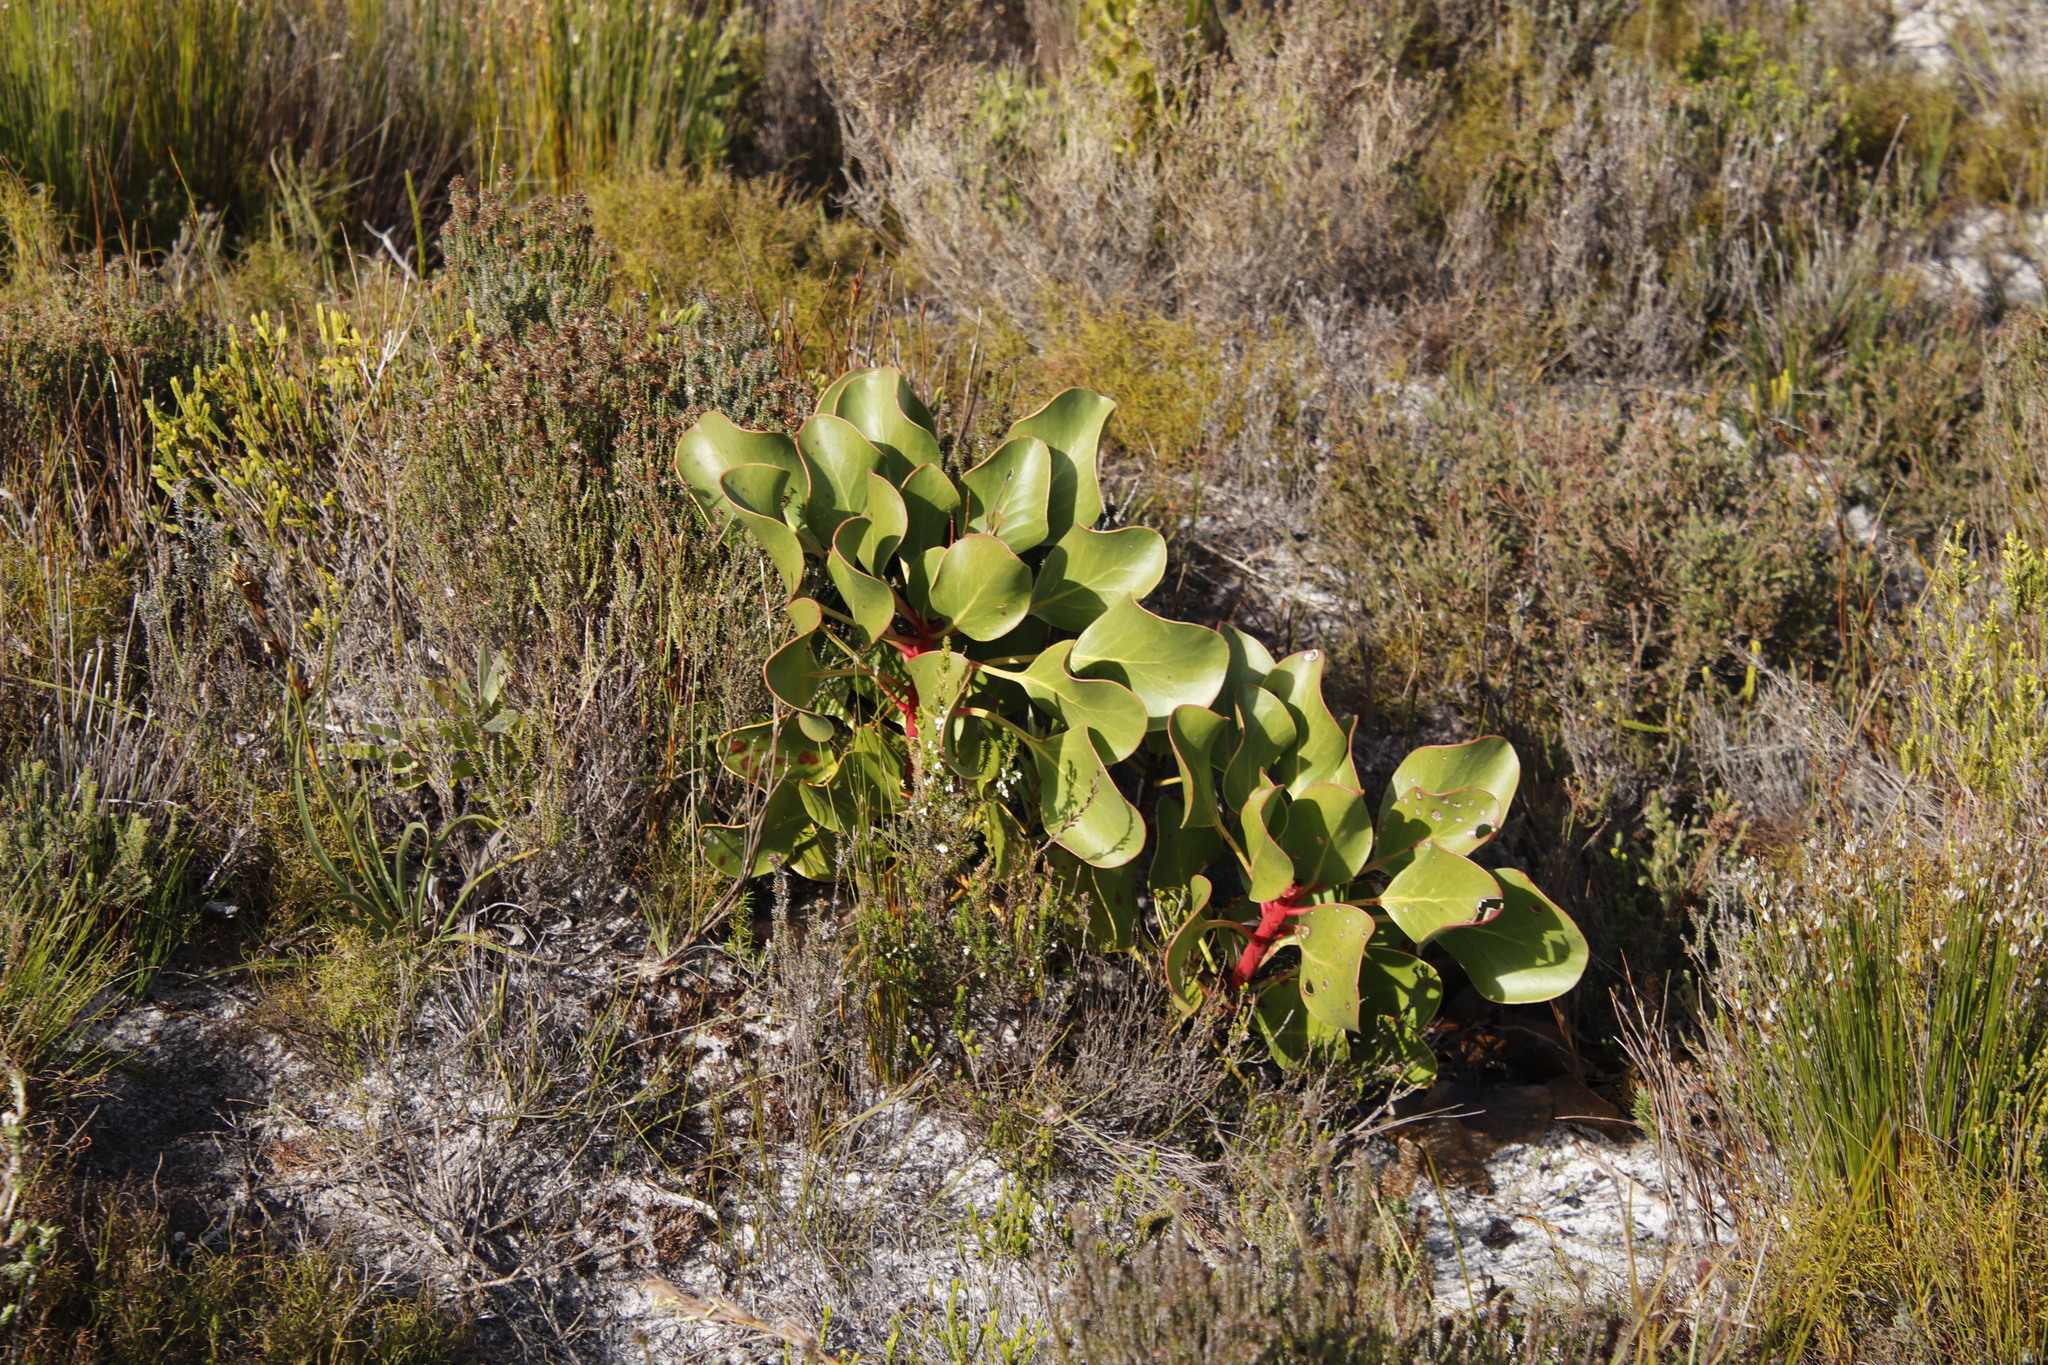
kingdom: Plantae
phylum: Tracheophyta
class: Magnoliopsida
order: Proteales
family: Proteaceae
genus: Protea
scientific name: Protea cynaroides
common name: King protea
